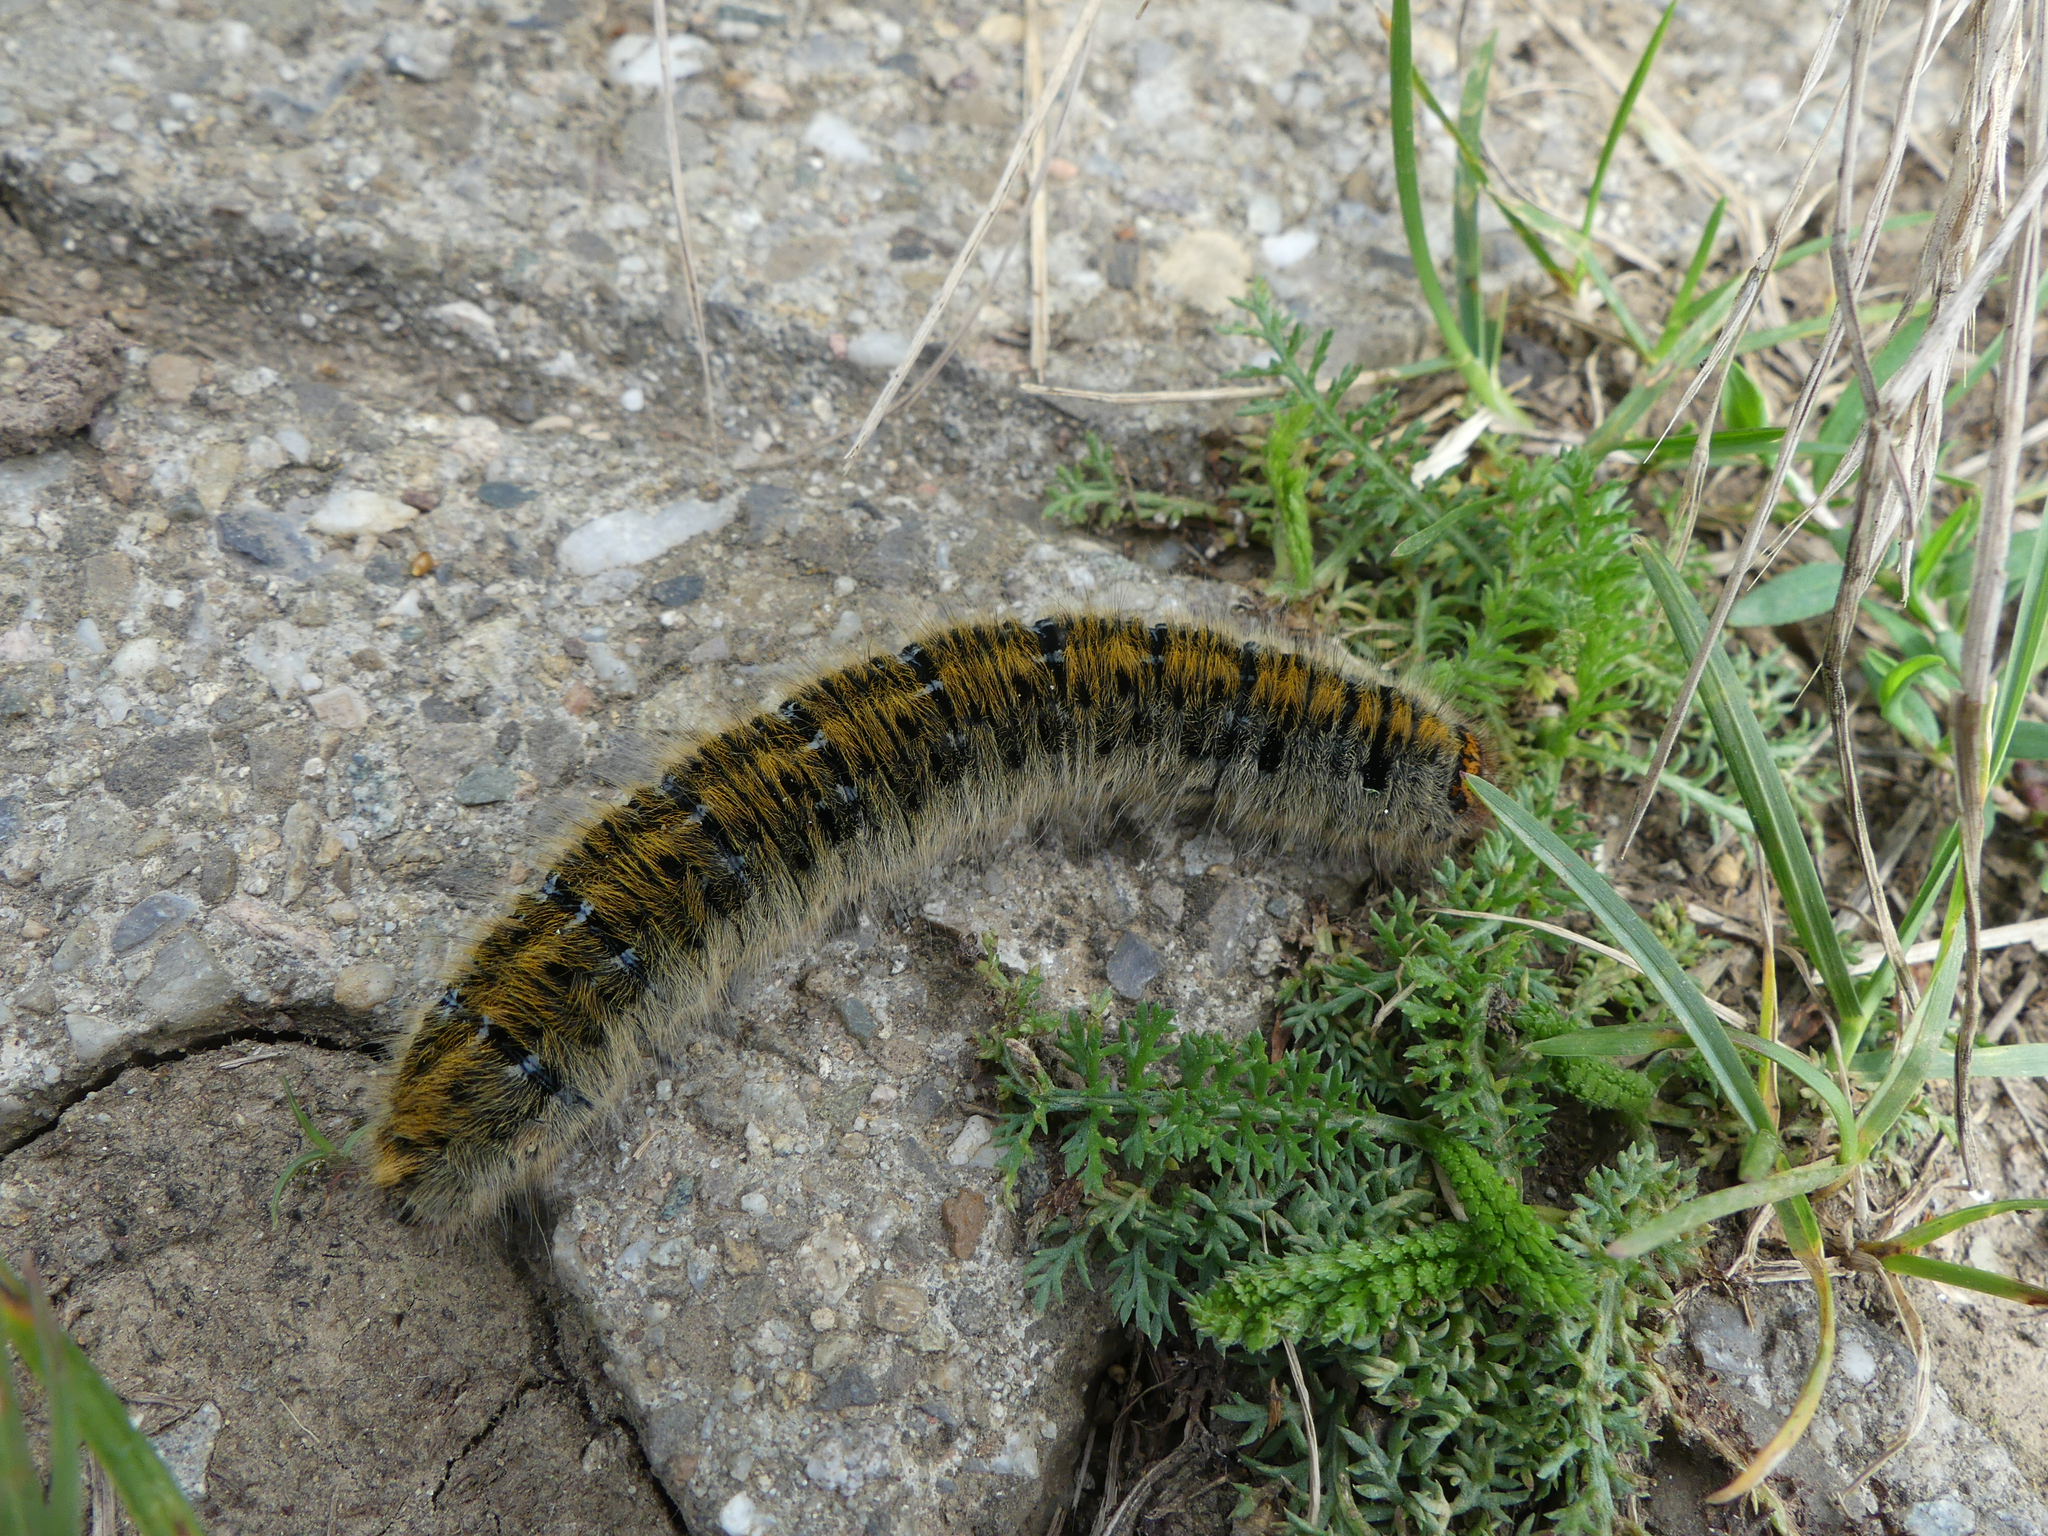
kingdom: Animalia
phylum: Arthropoda
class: Insecta
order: Lepidoptera
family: Lasiocampidae
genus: Lasiocampa
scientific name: Lasiocampa trifolii
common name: Grass eggar
